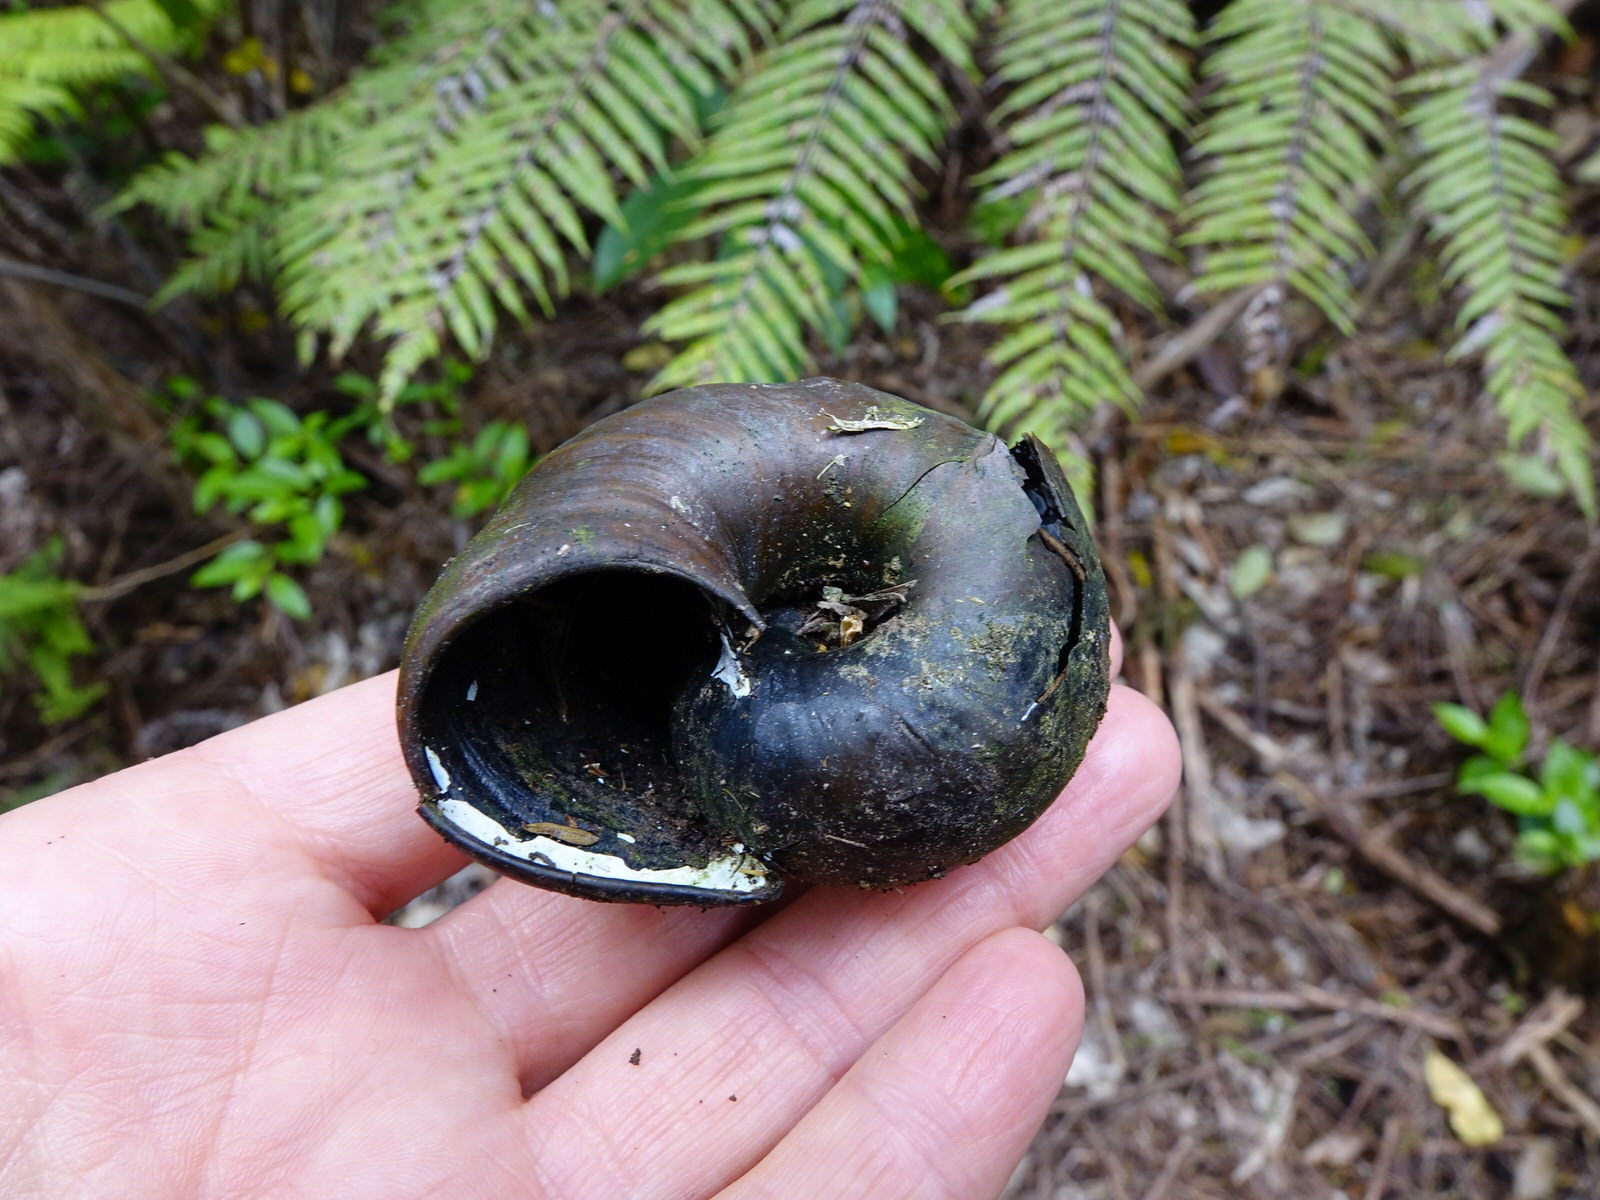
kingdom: Animalia
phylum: Mollusca
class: Gastropoda
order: Stylommatophora
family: Rhytididae
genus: Paryphanta
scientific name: Paryphanta busbyi
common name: Kauri snail
